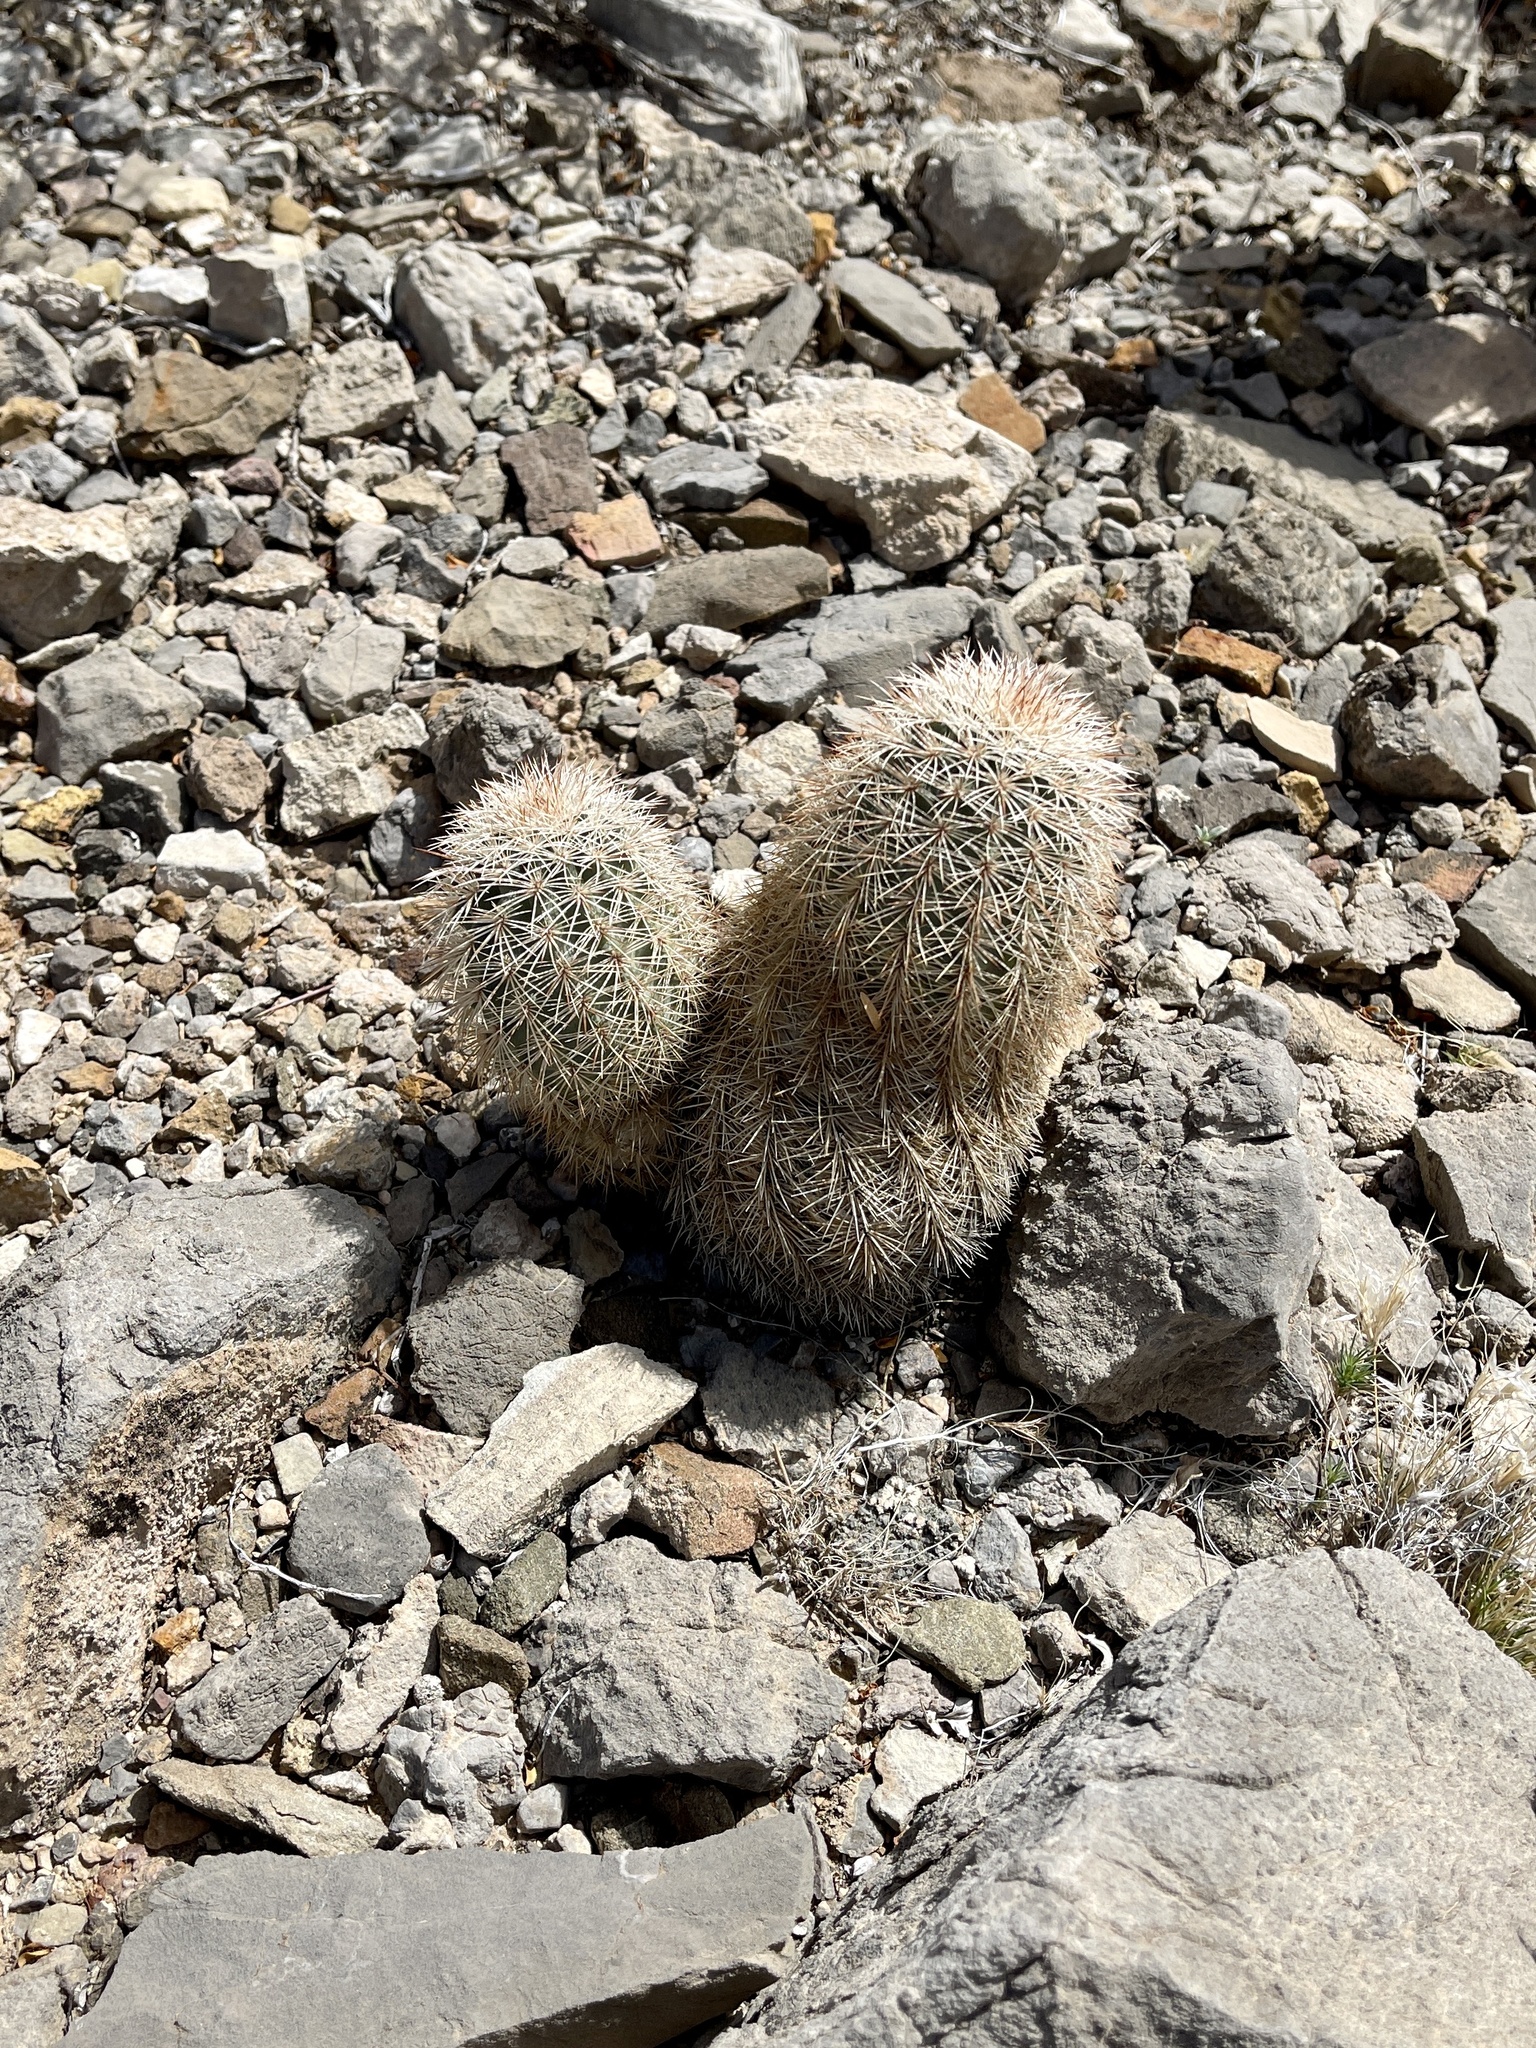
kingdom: Plantae
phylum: Tracheophyta
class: Magnoliopsida
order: Caryophyllales
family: Cactaceae
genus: Echinocereus
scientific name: Echinocereus dasyacanthus
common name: Spiny hedgehog cactus
